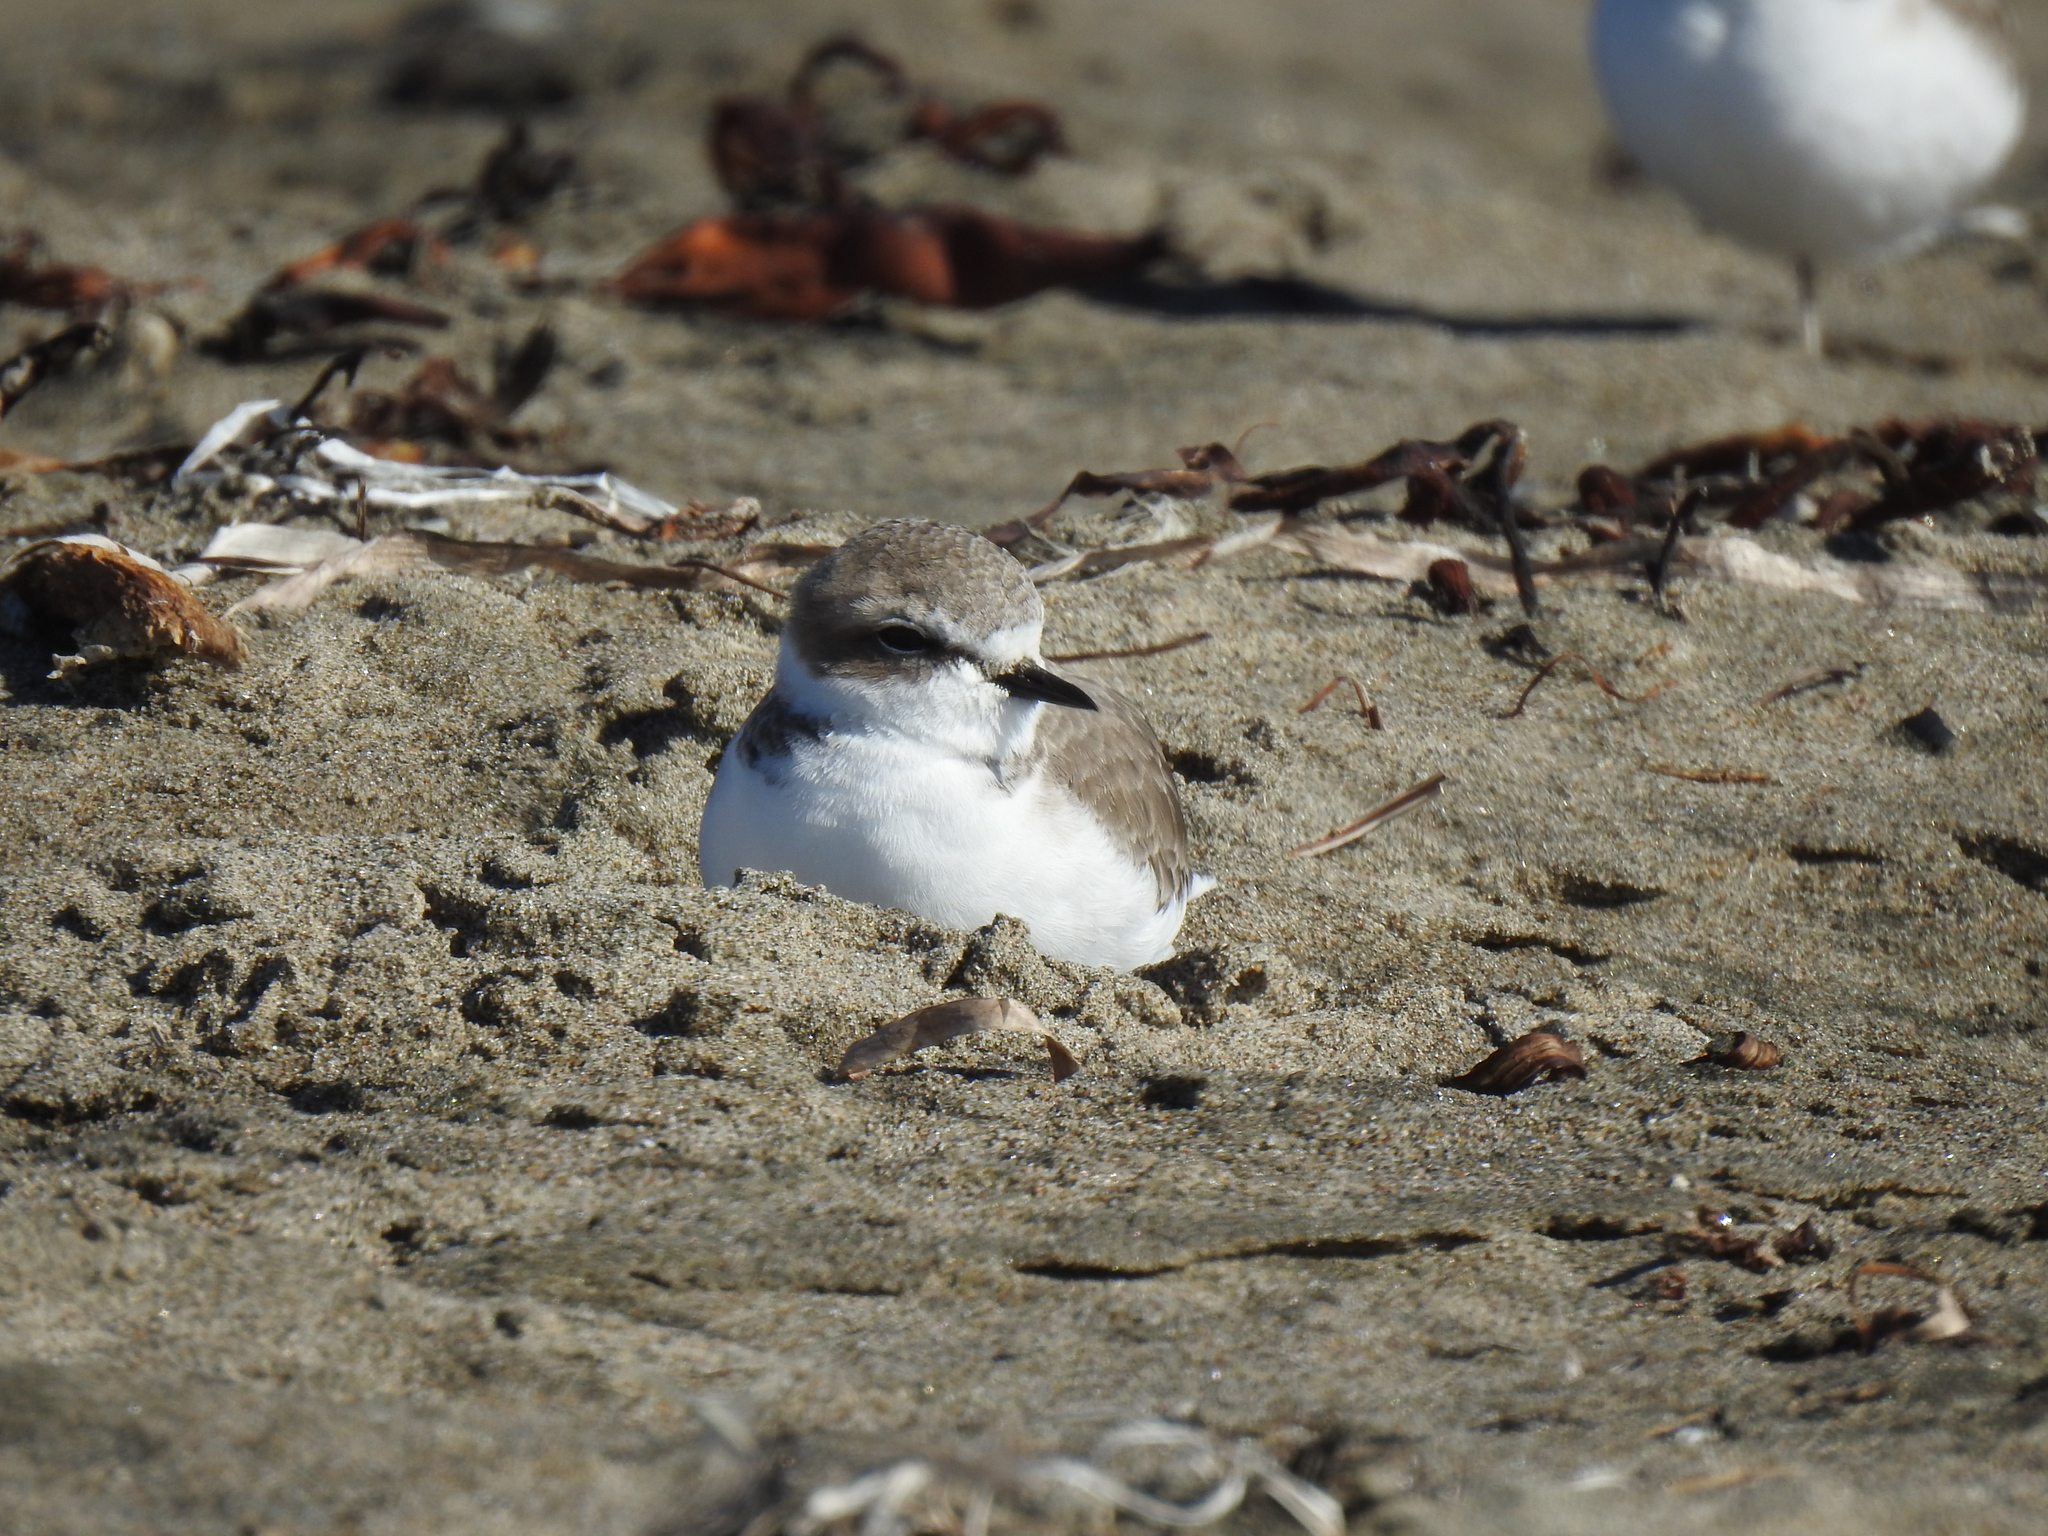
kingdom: Animalia
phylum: Chordata
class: Aves
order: Charadriiformes
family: Charadriidae
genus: Anarhynchus
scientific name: Anarhynchus
